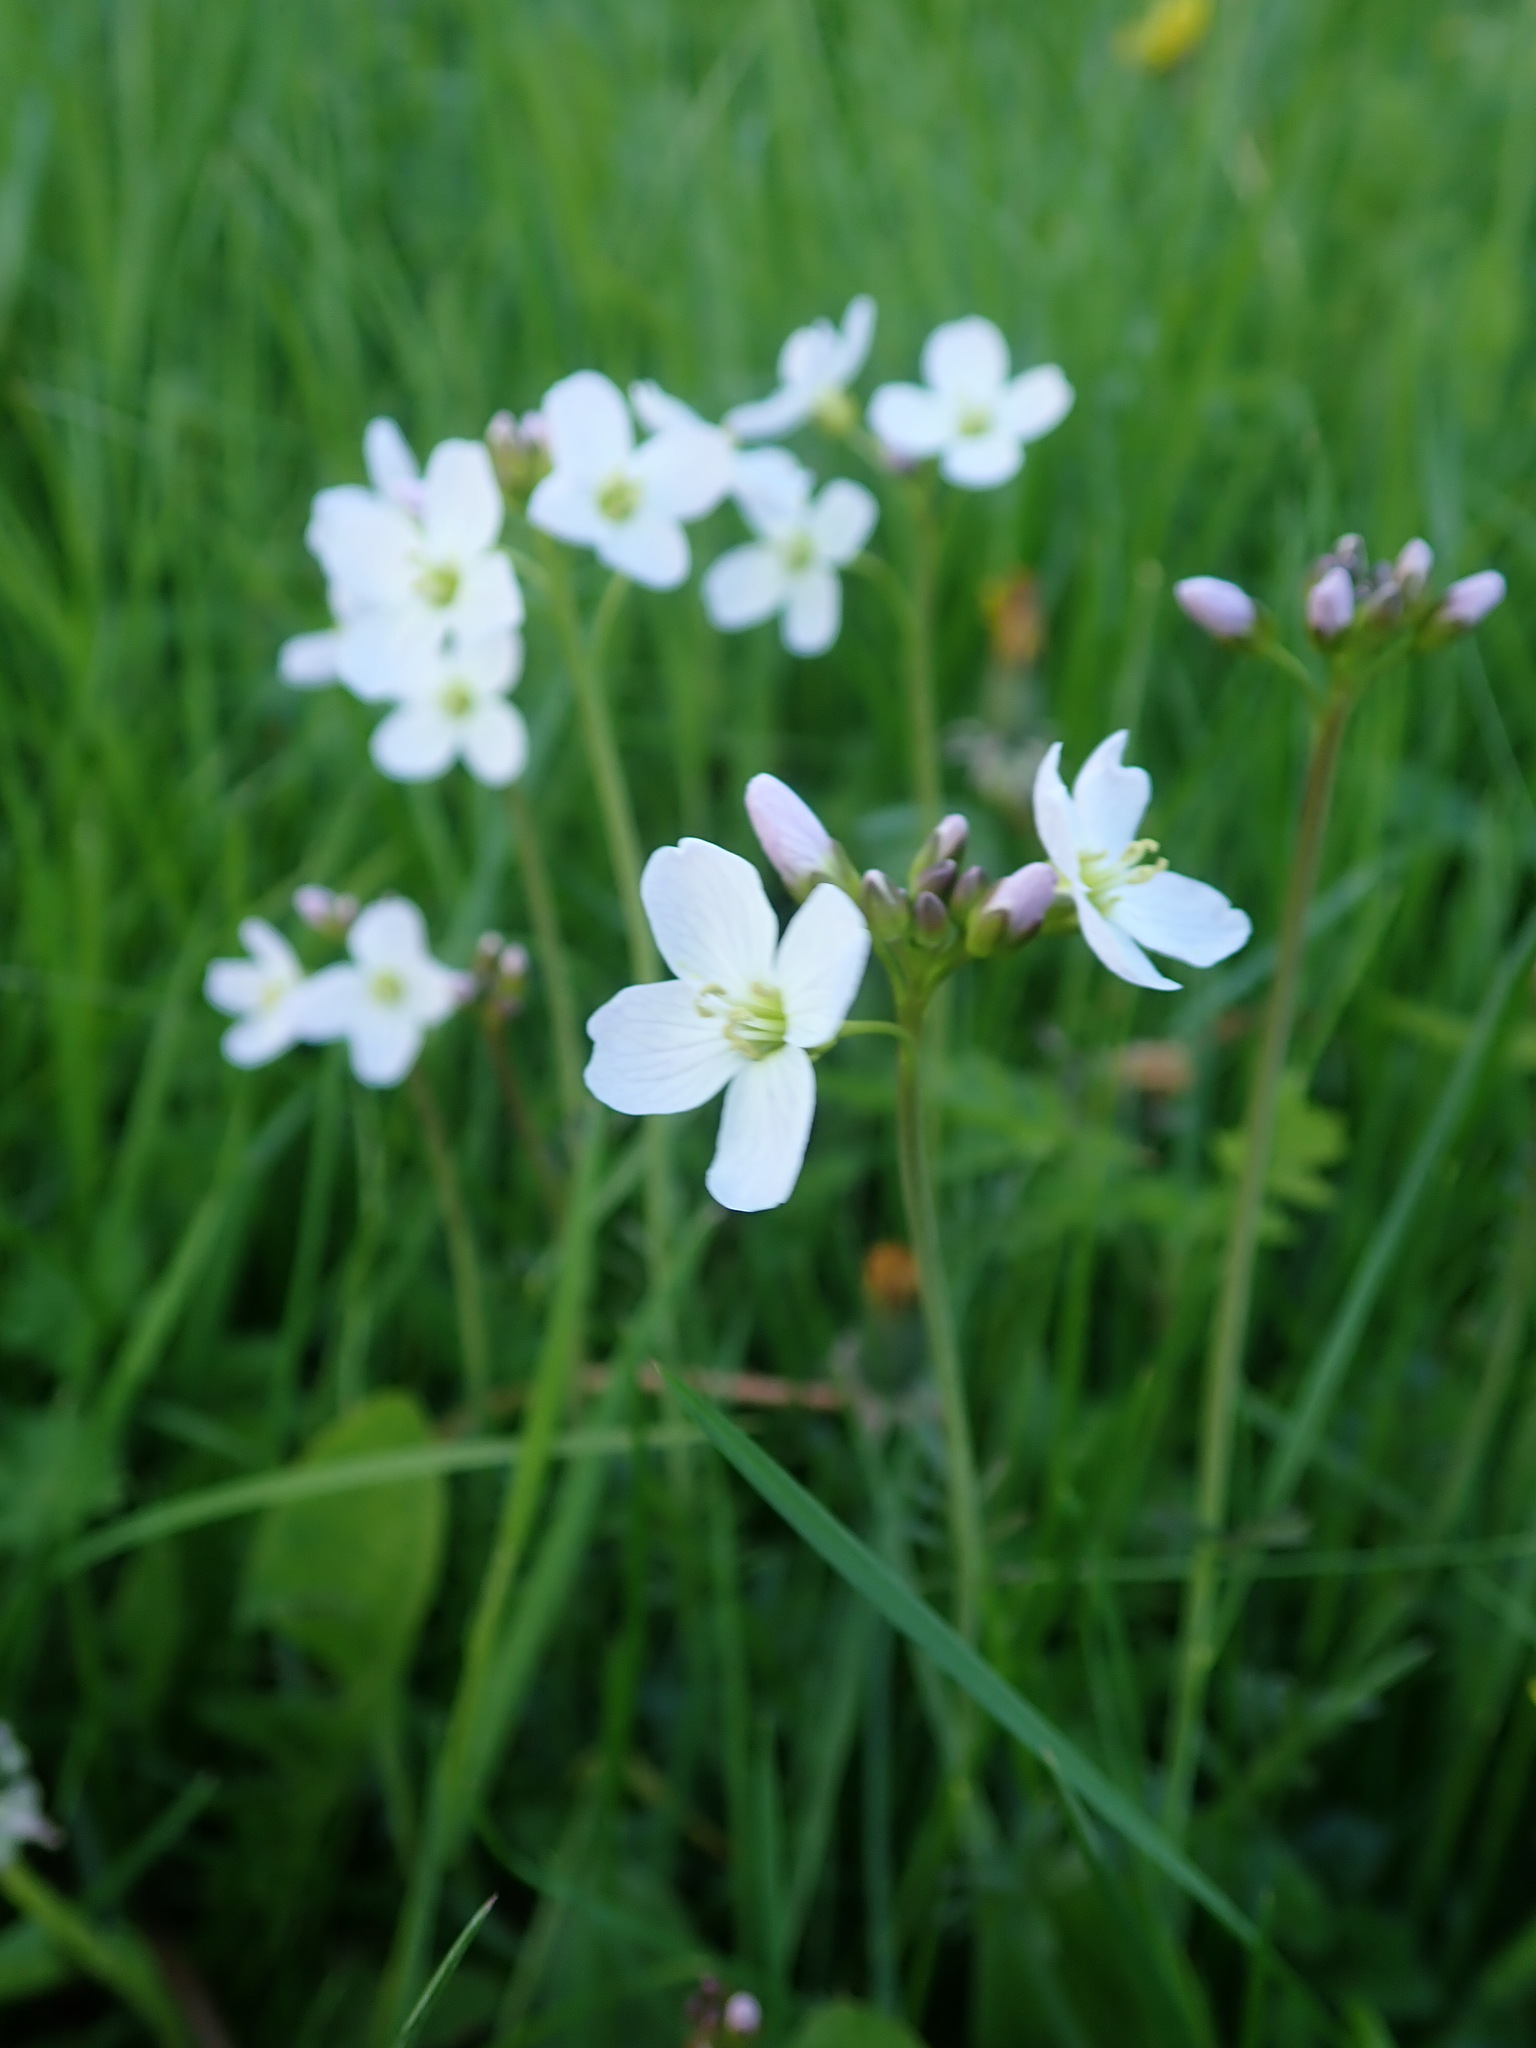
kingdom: Plantae
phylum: Tracheophyta
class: Magnoliopsida
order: Brassicales
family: Brassicaceae
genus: Cardamine
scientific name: Cardamine pratensis
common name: Cuckoo flower
